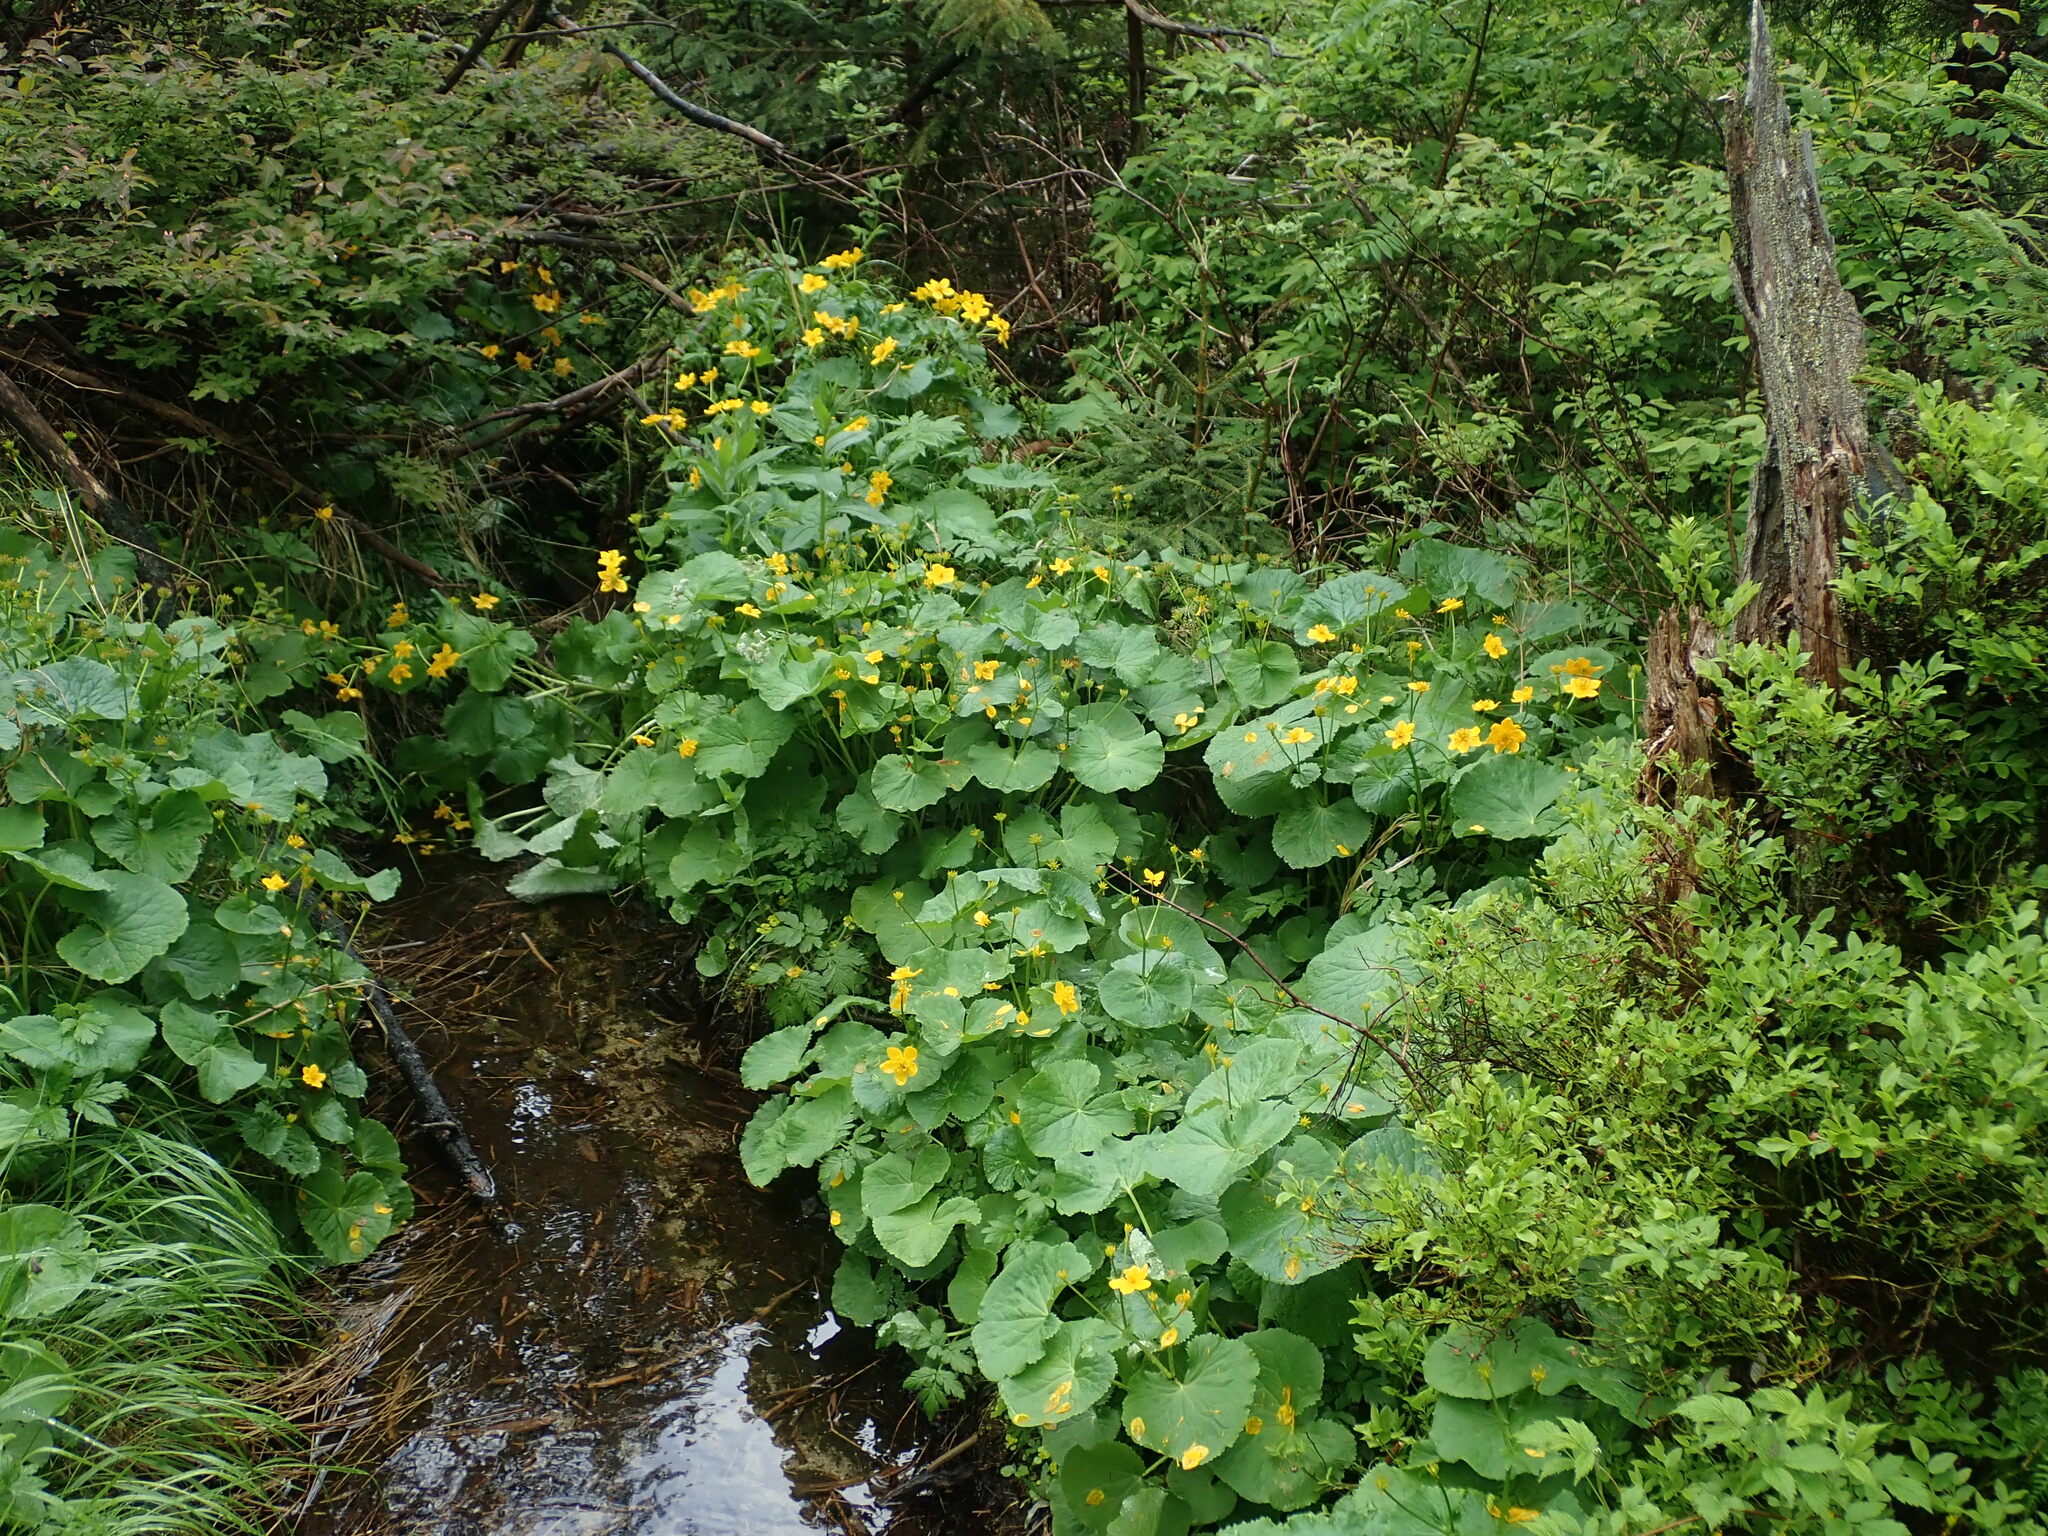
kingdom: Plantae
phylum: Tracheophyta
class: Magnoliopsida
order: Ranunculales
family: Ranunculaceae
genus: Caltha
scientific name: Caltha palustris
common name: Marsh marigold
